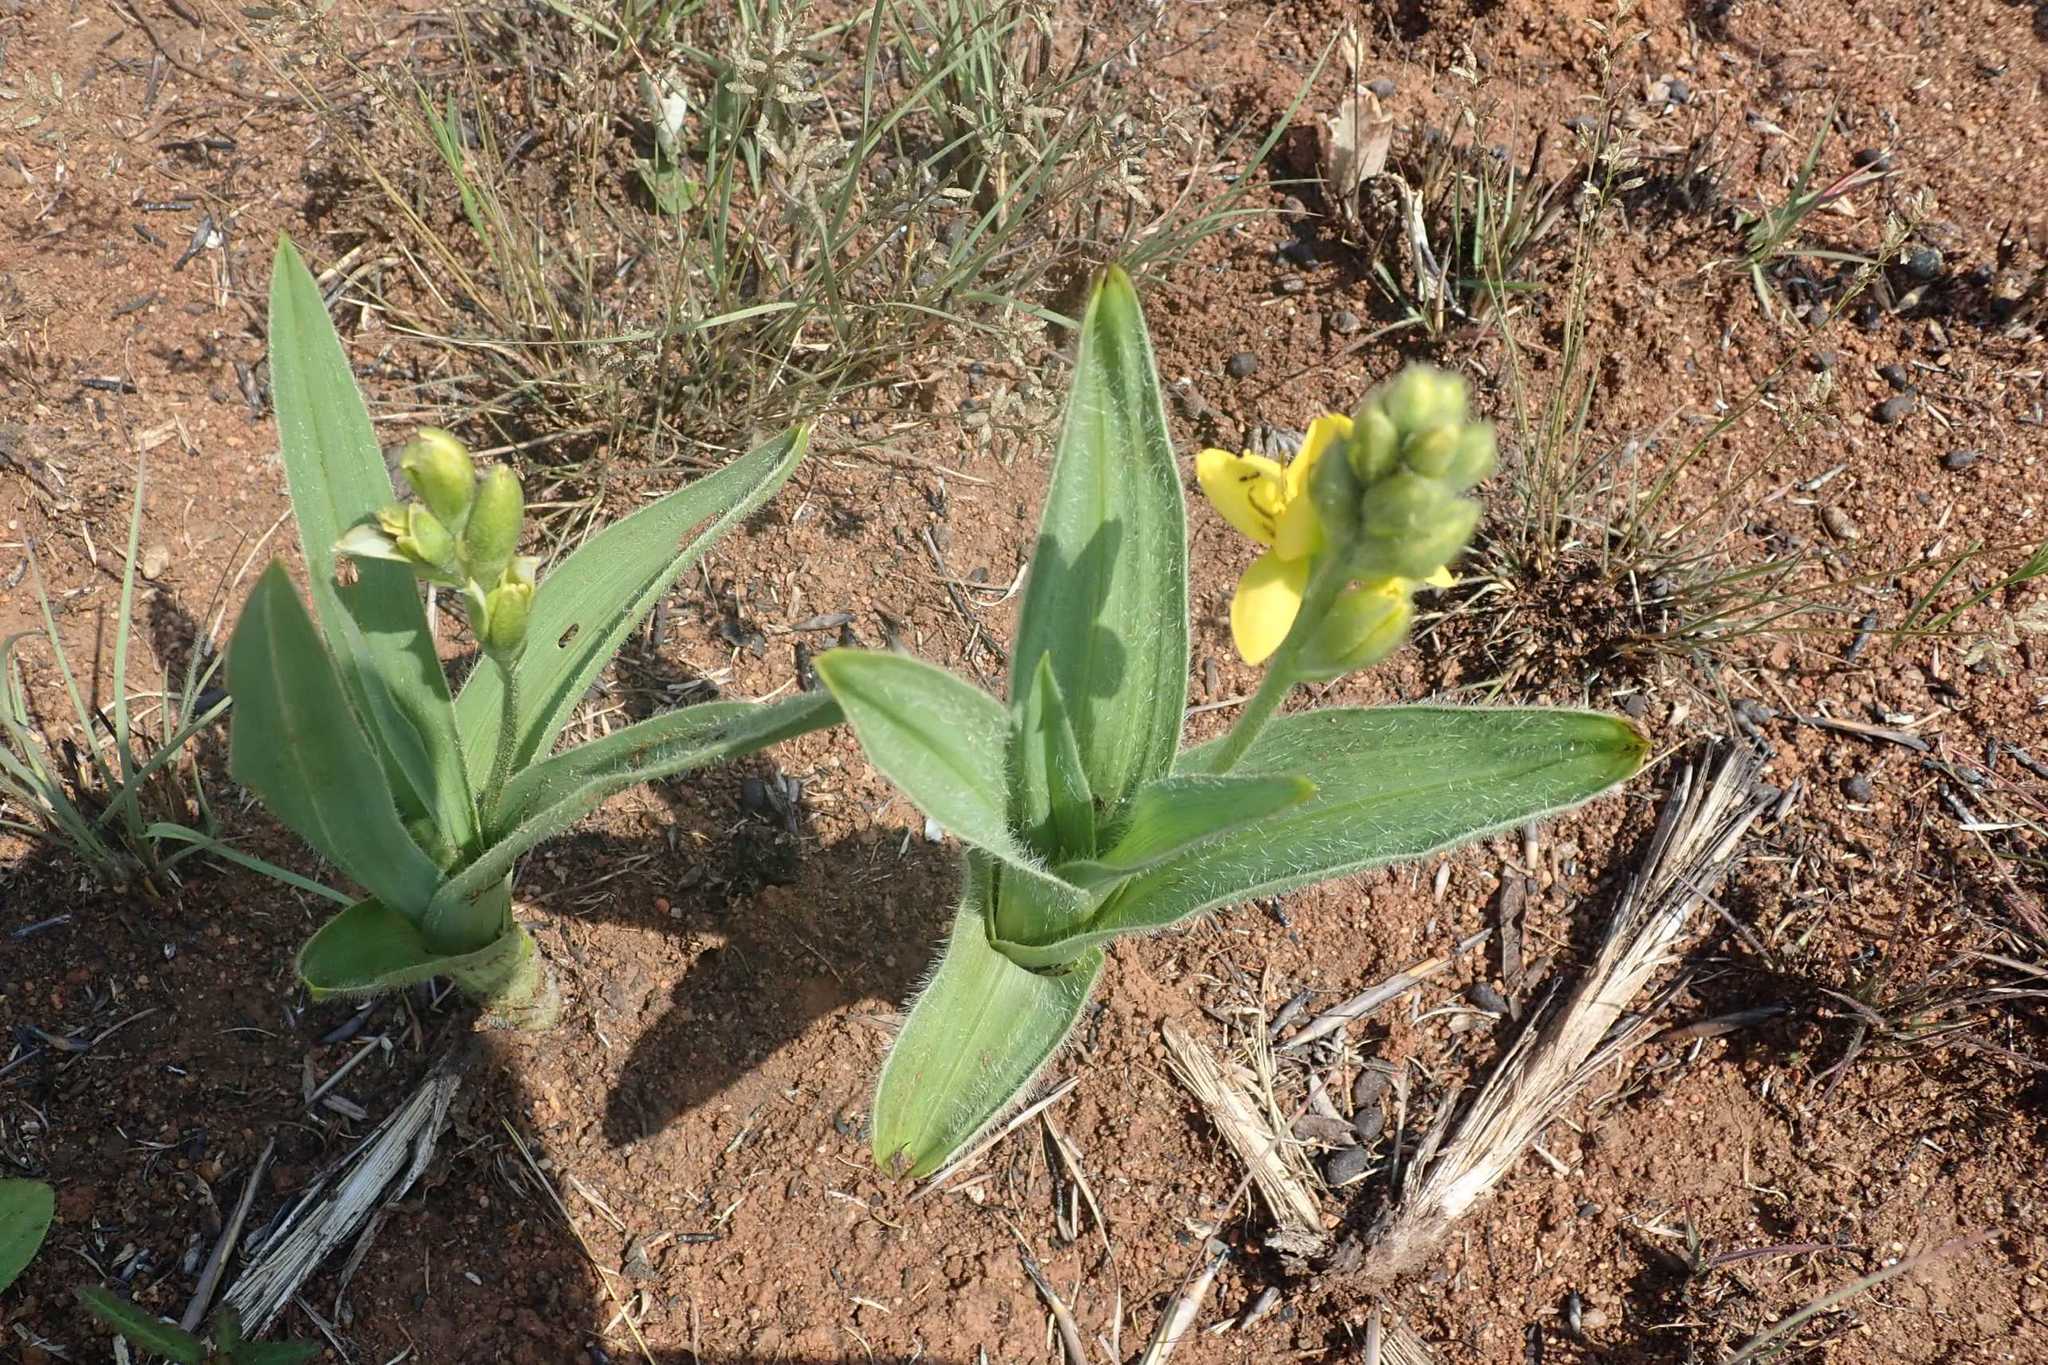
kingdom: Plantae
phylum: Tracheophyta
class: Liliopsida
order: Asparagales
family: Hypoxidaceae
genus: Hypoxis
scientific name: Hypoxis galpinii
